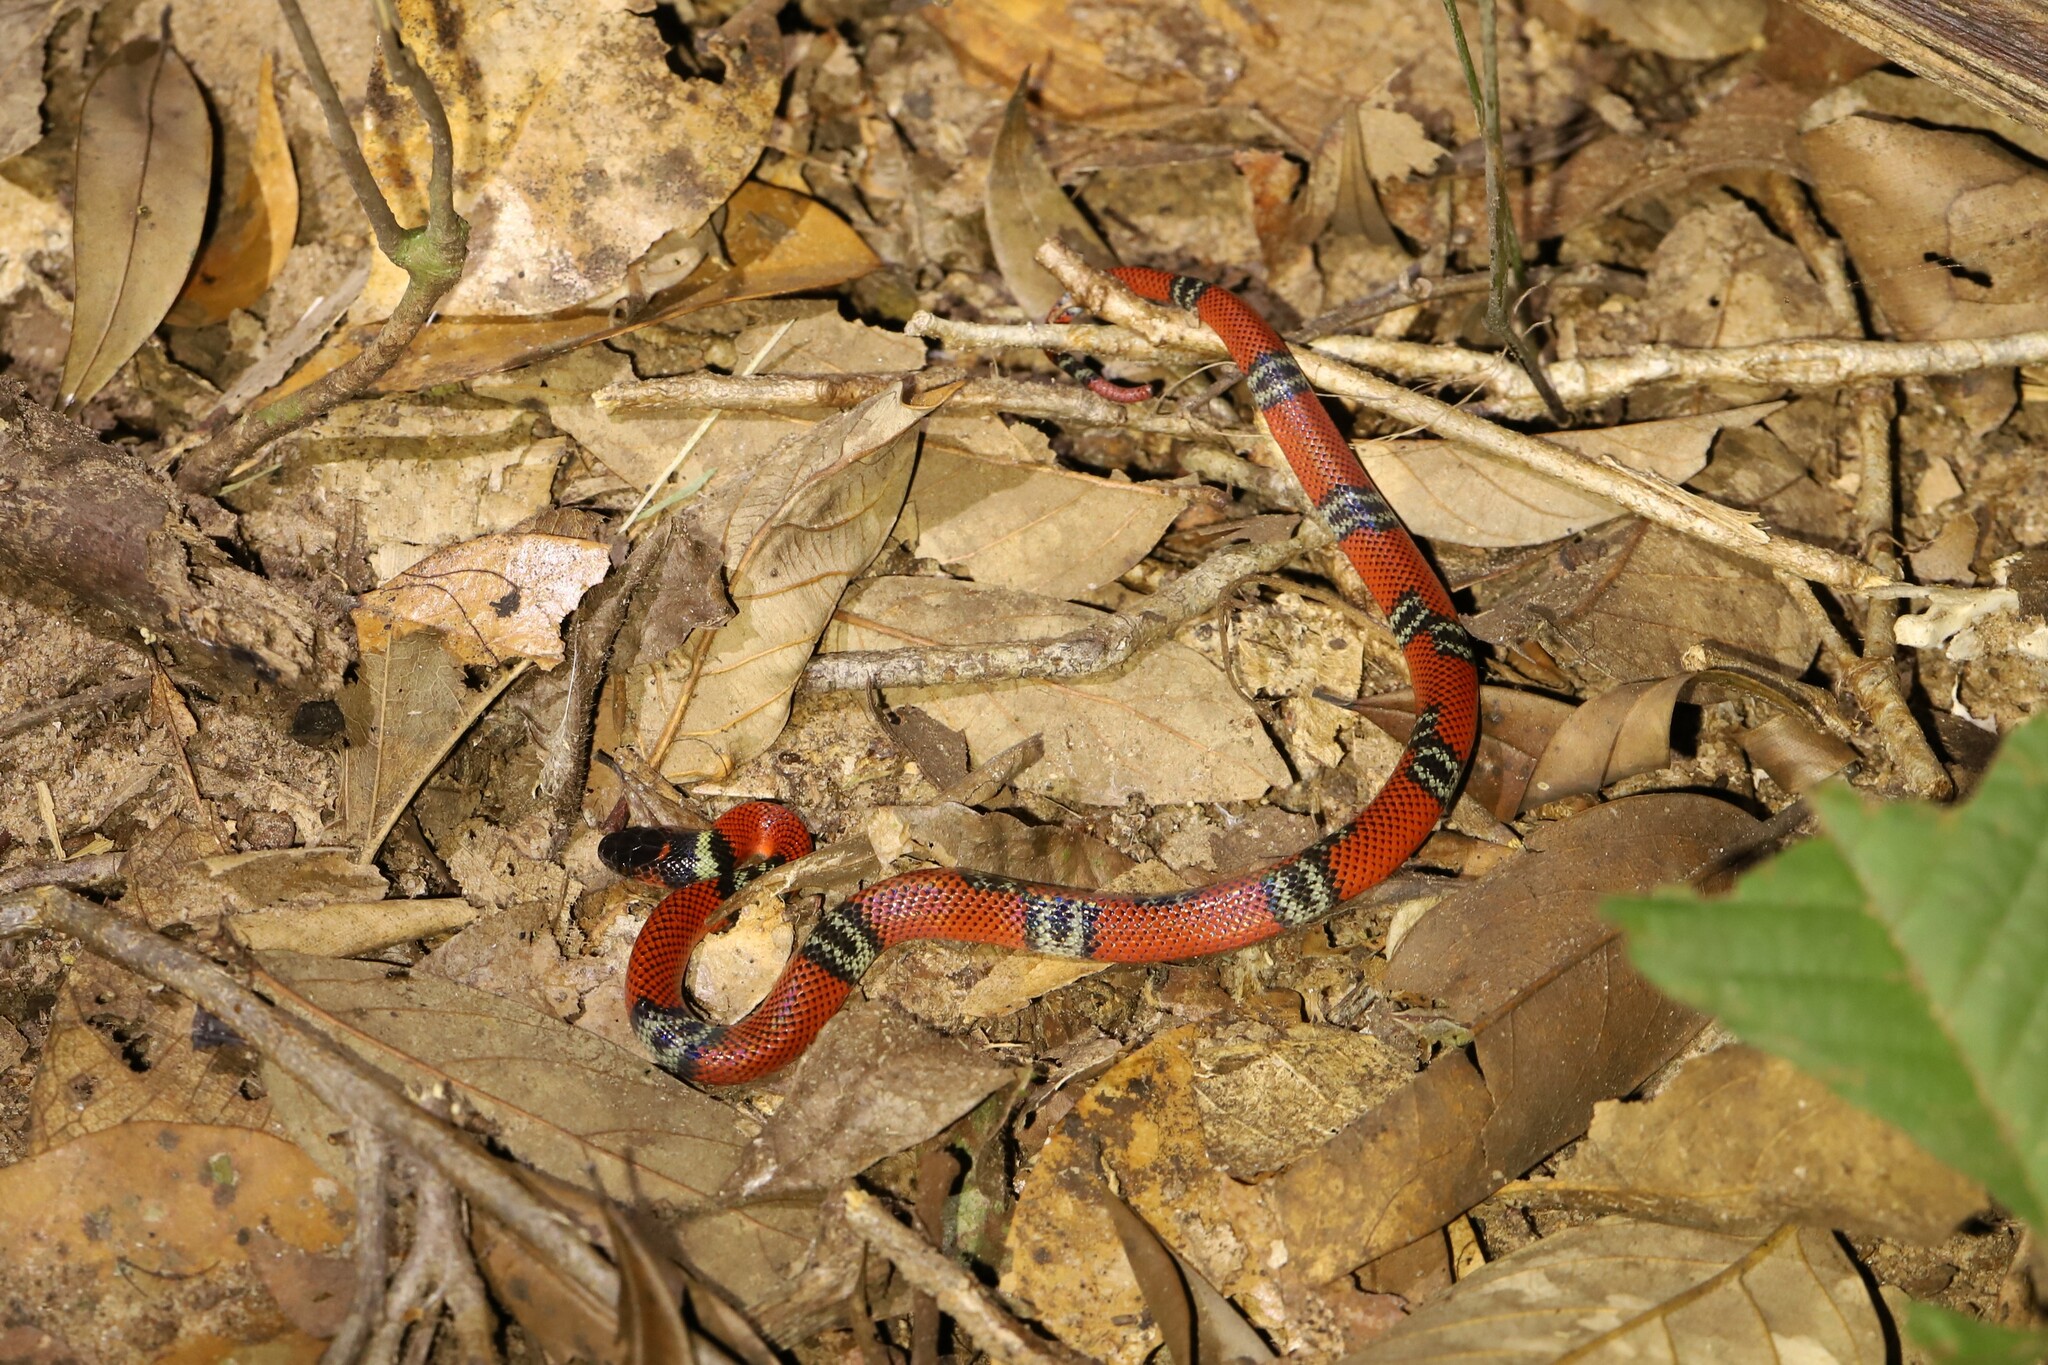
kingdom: Animalia
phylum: Chordata
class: Squamata
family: Colubridae
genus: Oxyrhopus
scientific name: Oxyrhopus guibei
